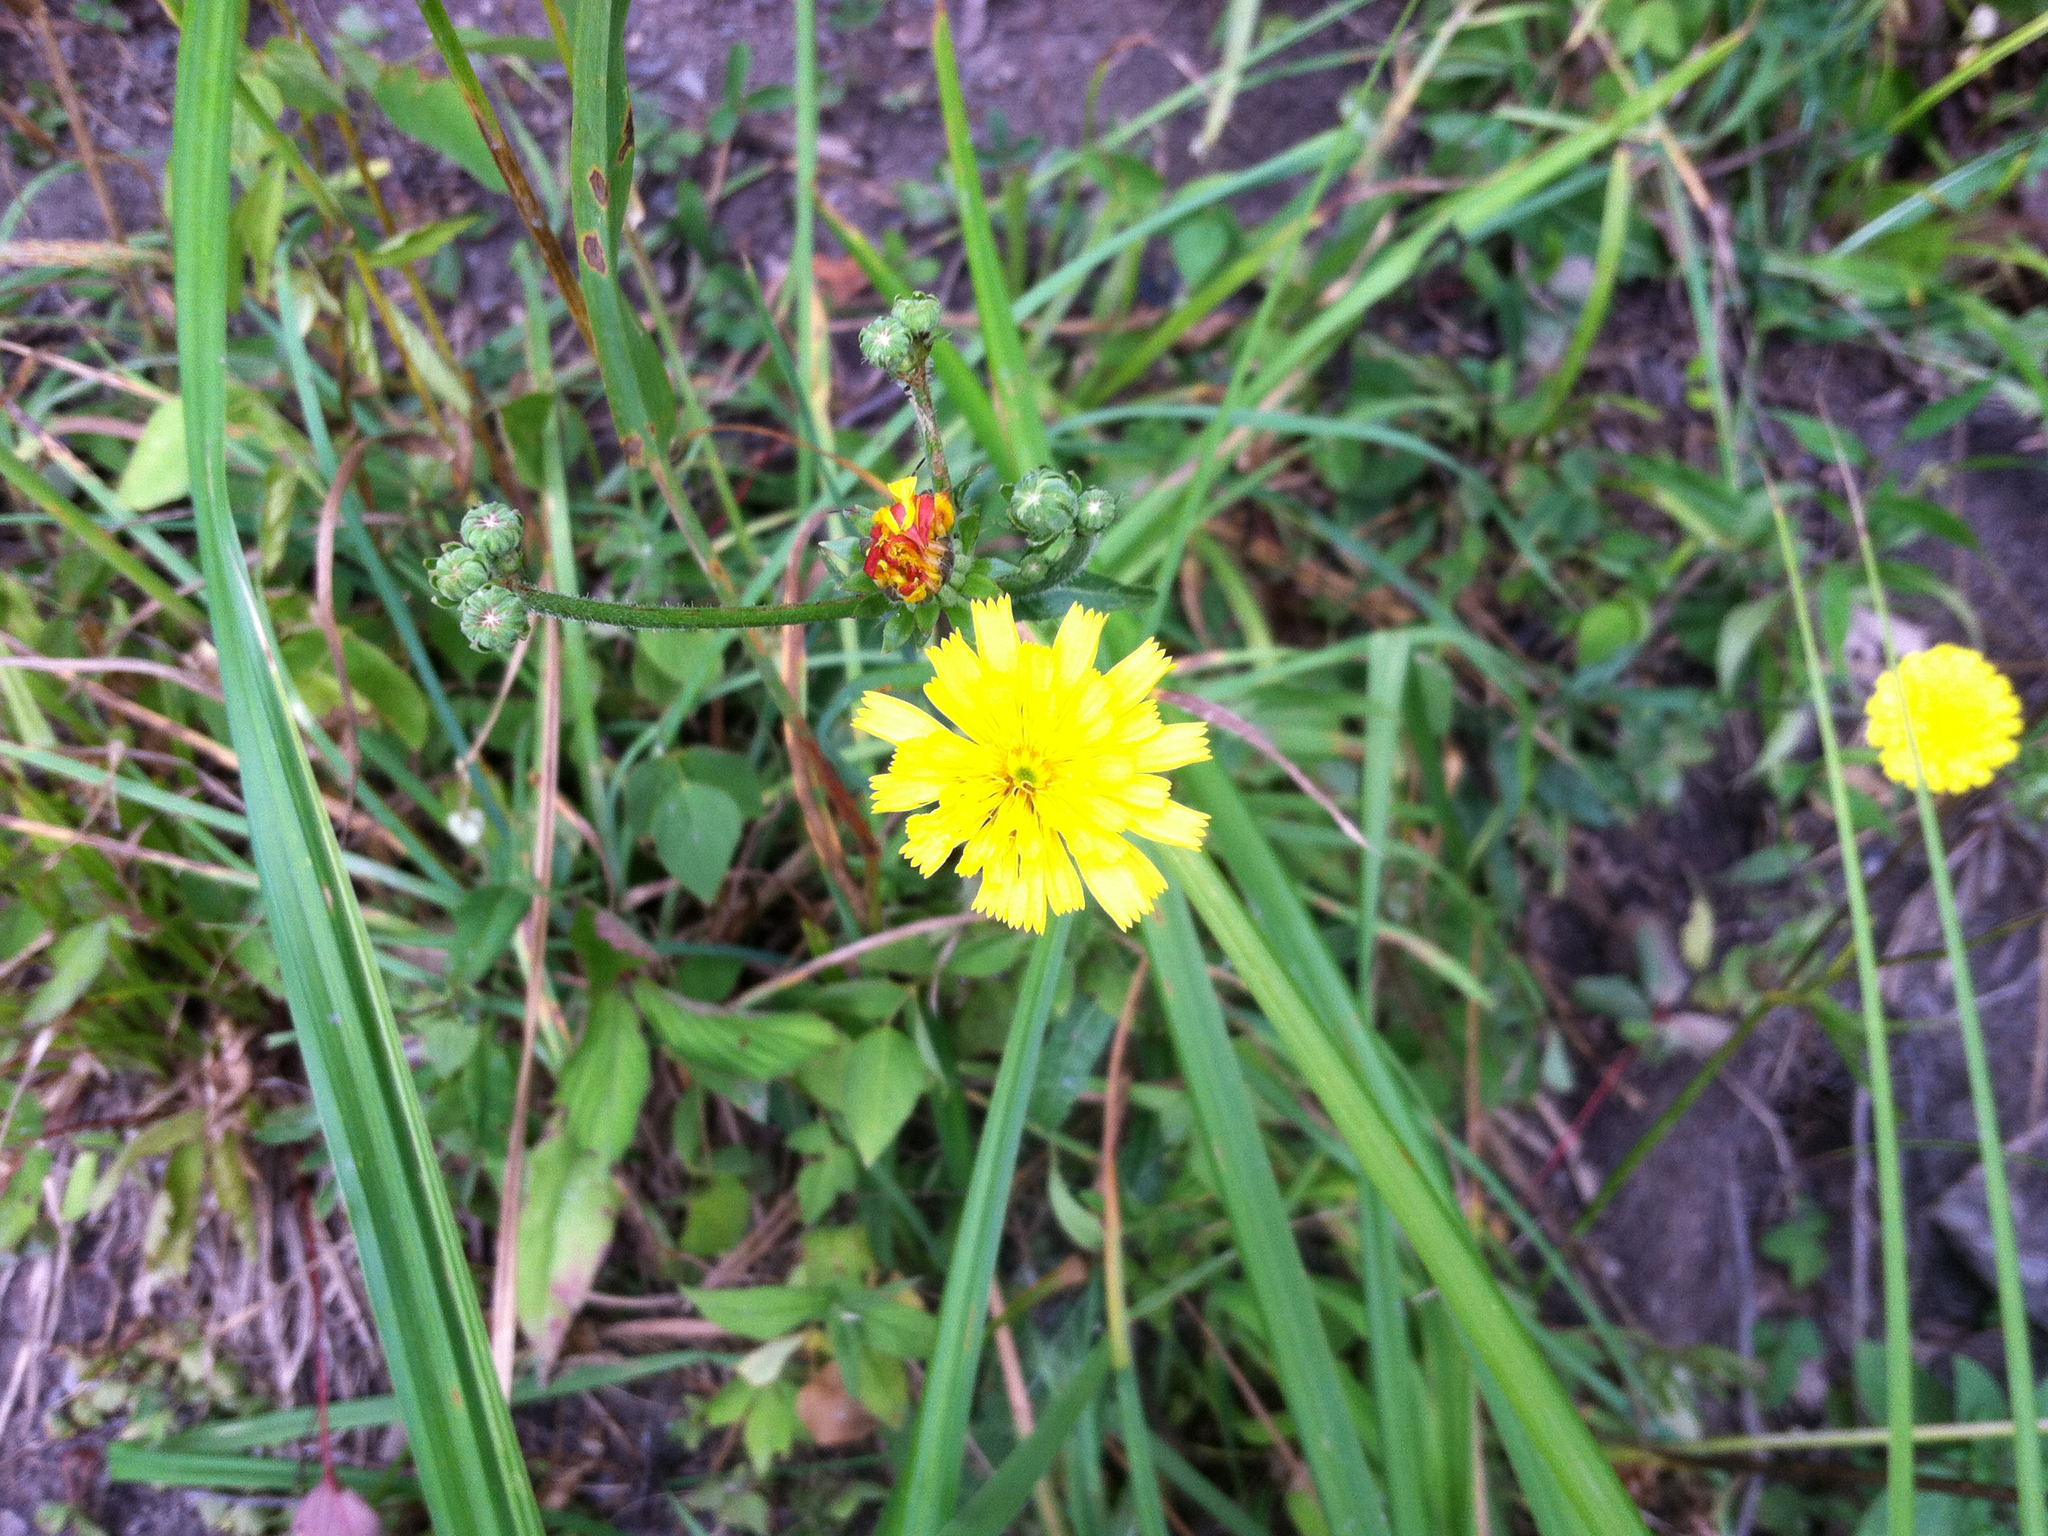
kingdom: Plantae
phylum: Tracheophyta
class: Magnoliopsida
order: Asterales
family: Asteraceae
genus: Picris
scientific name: Picris hieracioides
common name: Hawkweed oxtongue
